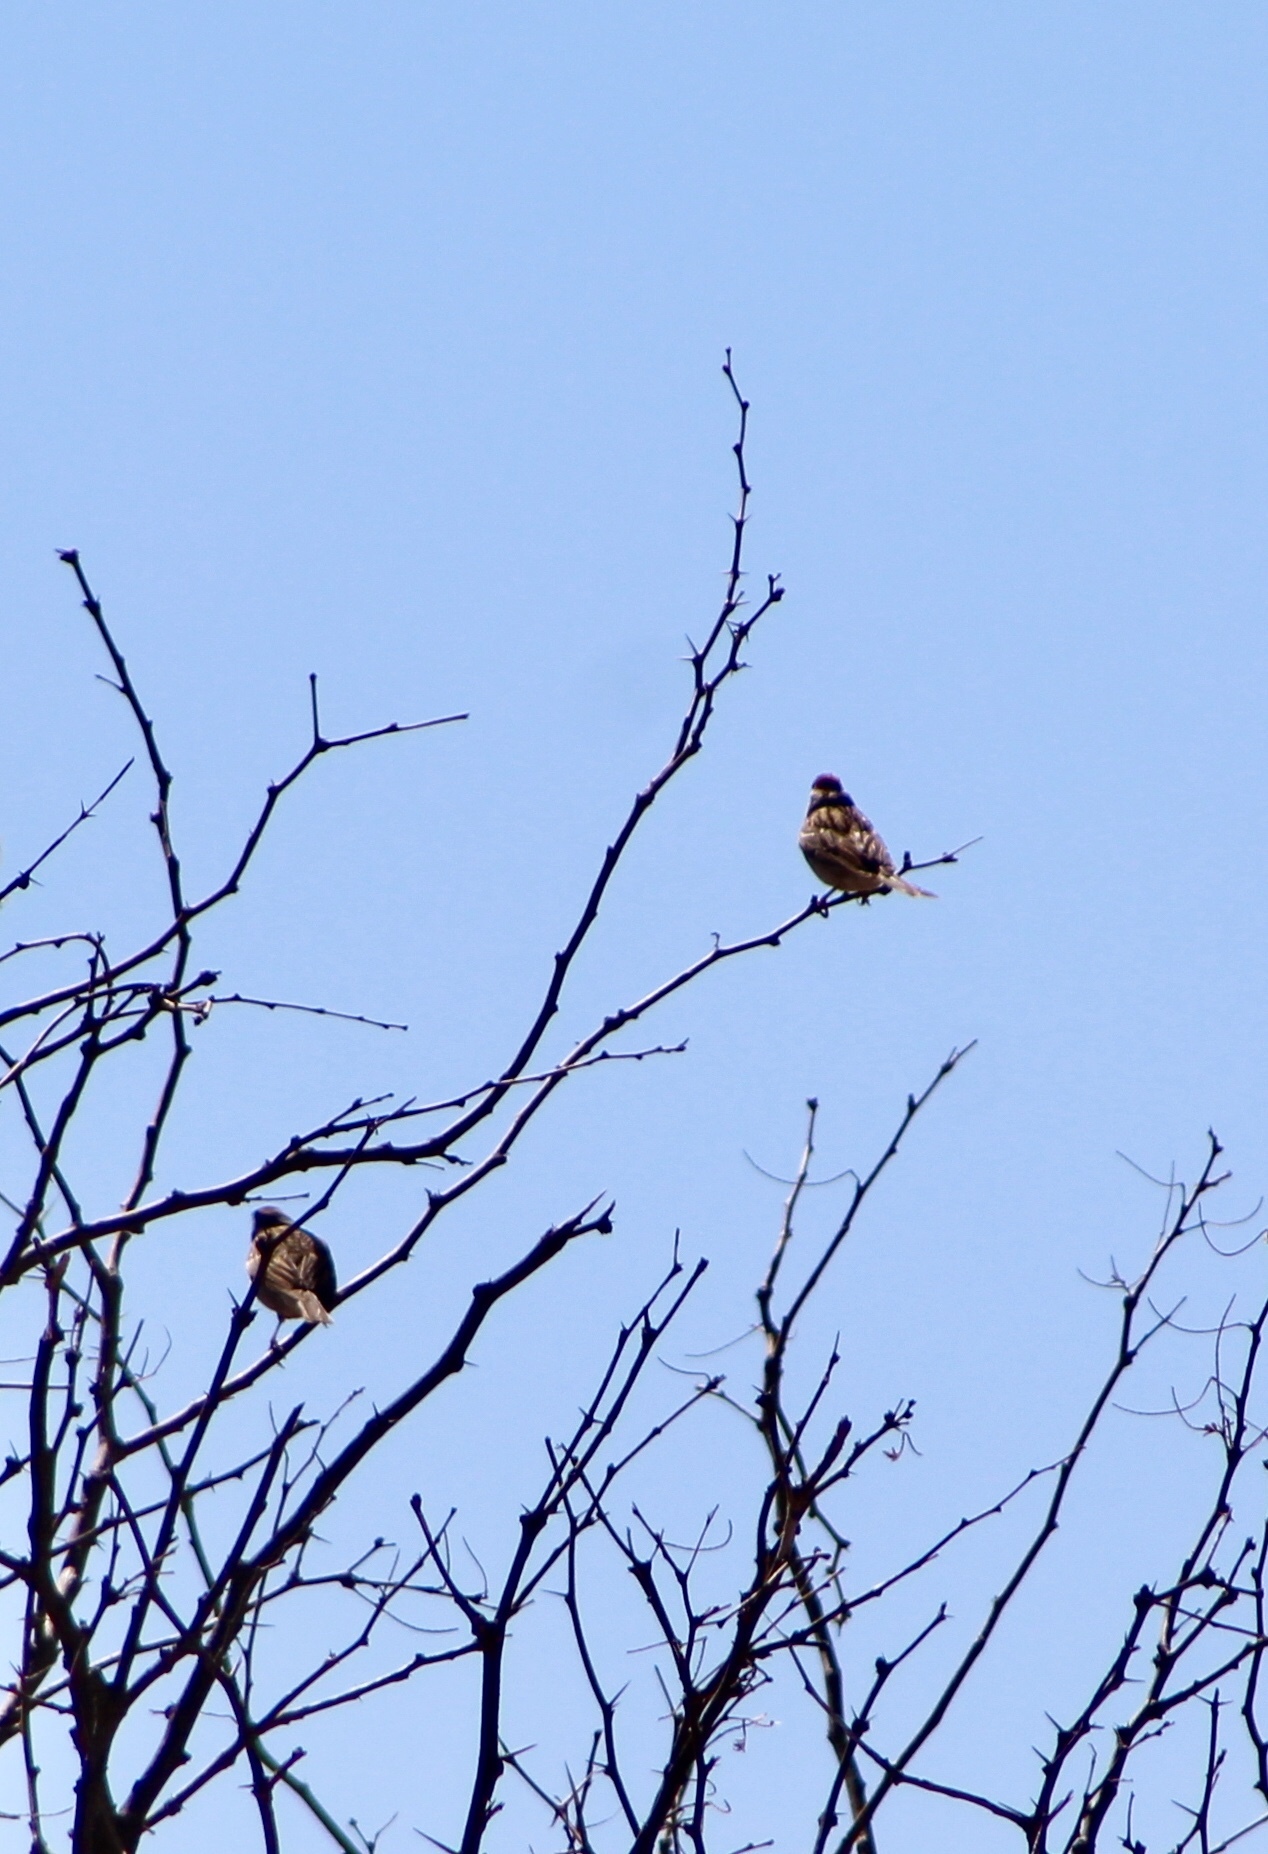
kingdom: Animalia
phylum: Chordata
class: Aves
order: Passeriformes
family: Passerellidae
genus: Spizella
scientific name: Spizella passerina
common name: Chipping sparrow
